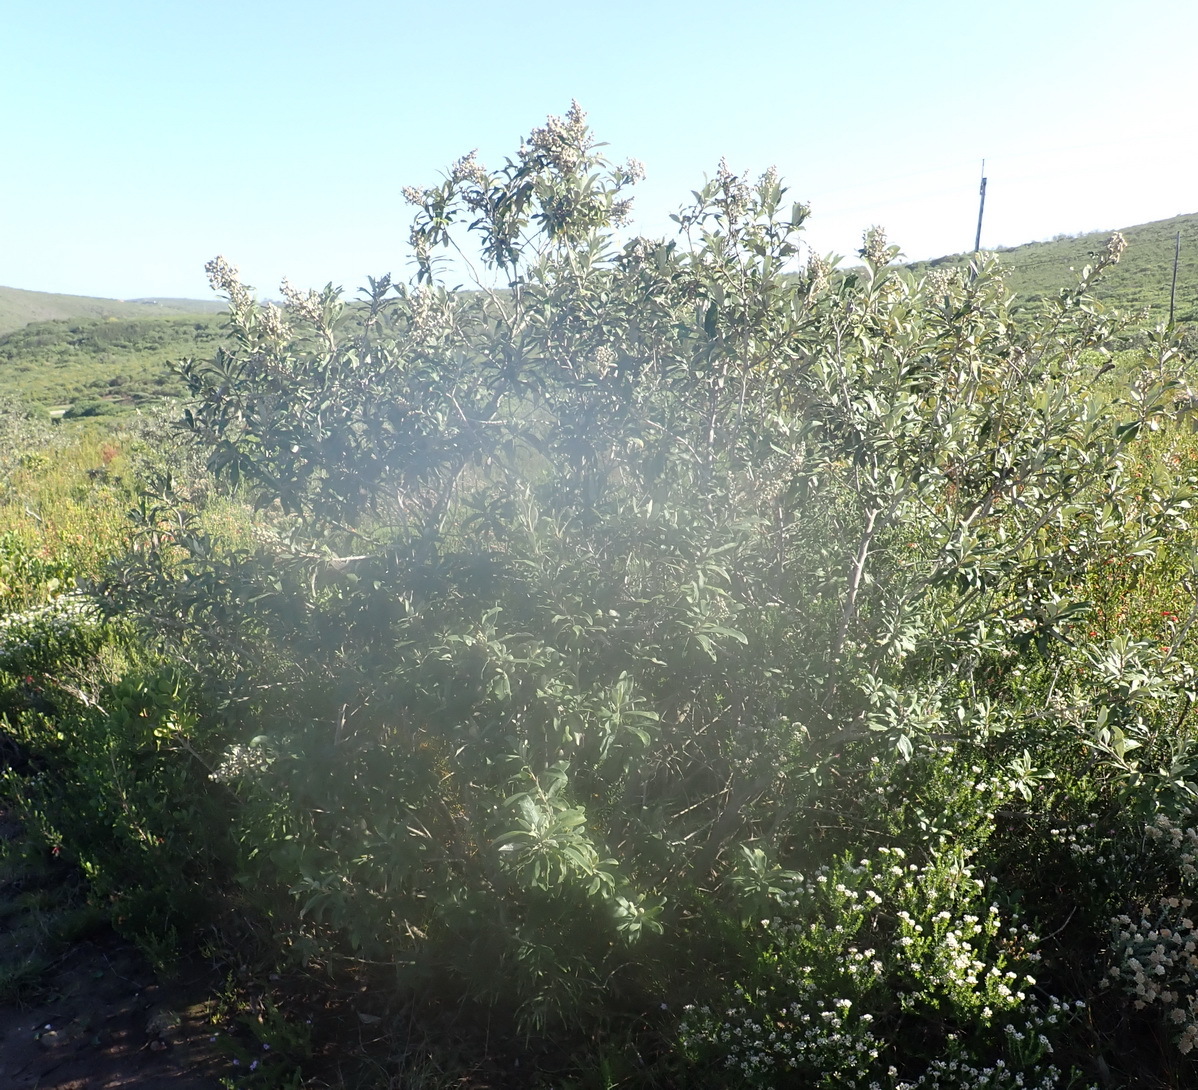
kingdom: Plantae
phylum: Tracheophyta
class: Magnoliopsida
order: Asterales
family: Asteraceae
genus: Tarchonanthus
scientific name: Tarchonanthus littoralis
